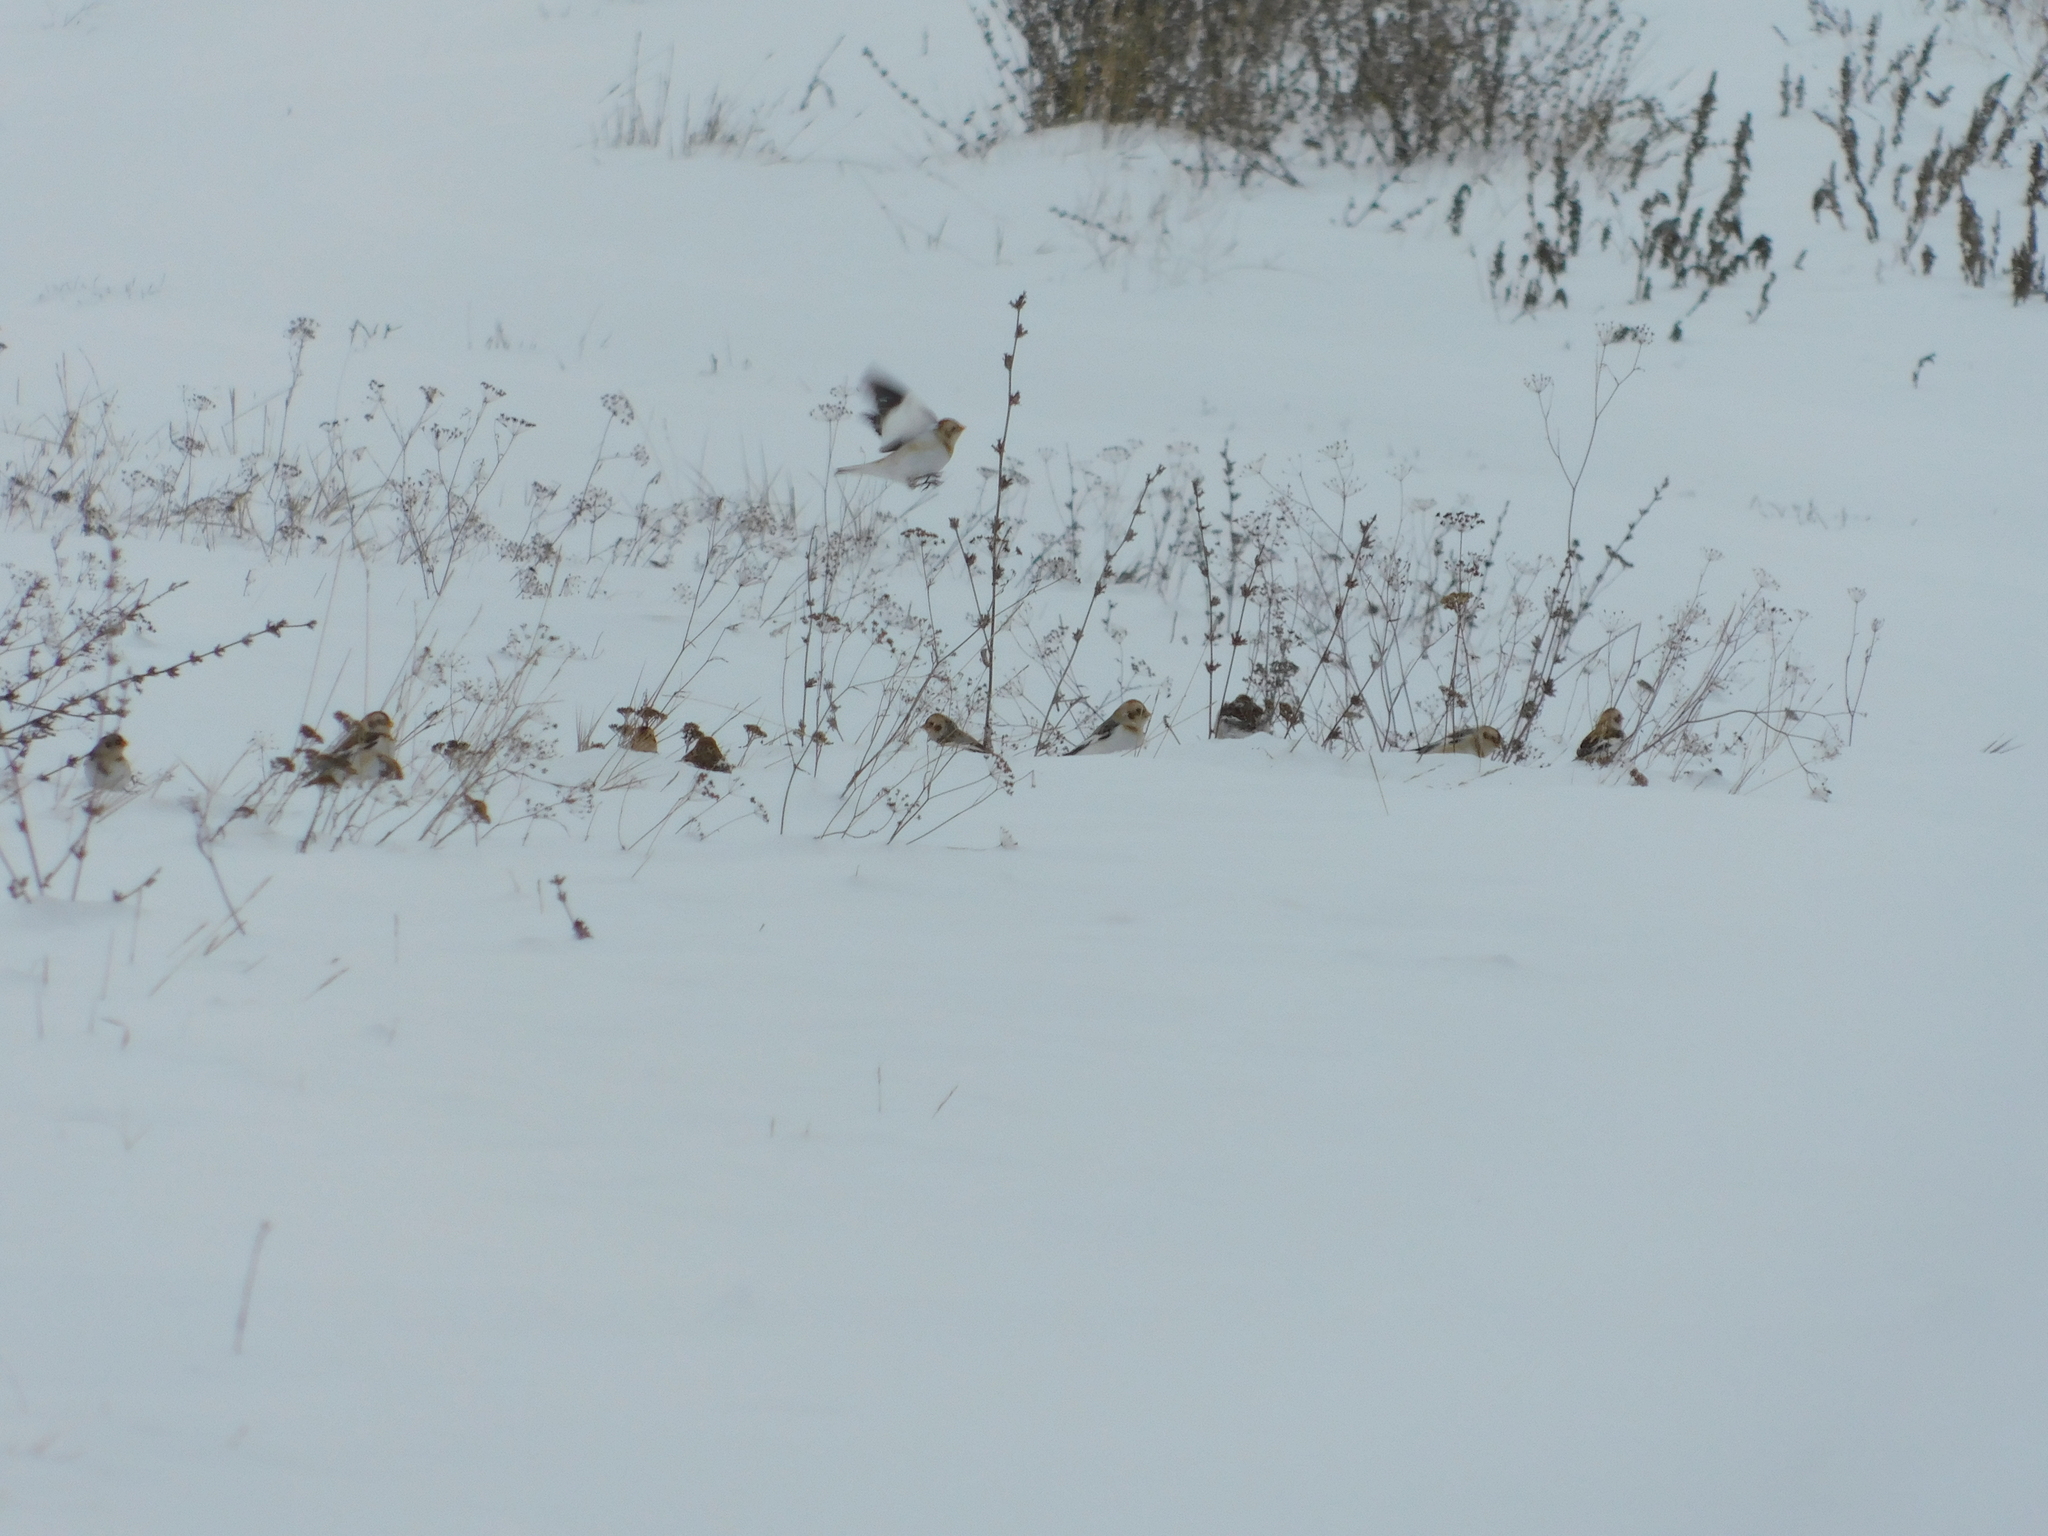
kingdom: Animalia
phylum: Chordata
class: Aves
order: Passeriformes
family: Calcariidae
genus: Plectrophenax
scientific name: Plectrophenax nivalis
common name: Snow bunting
